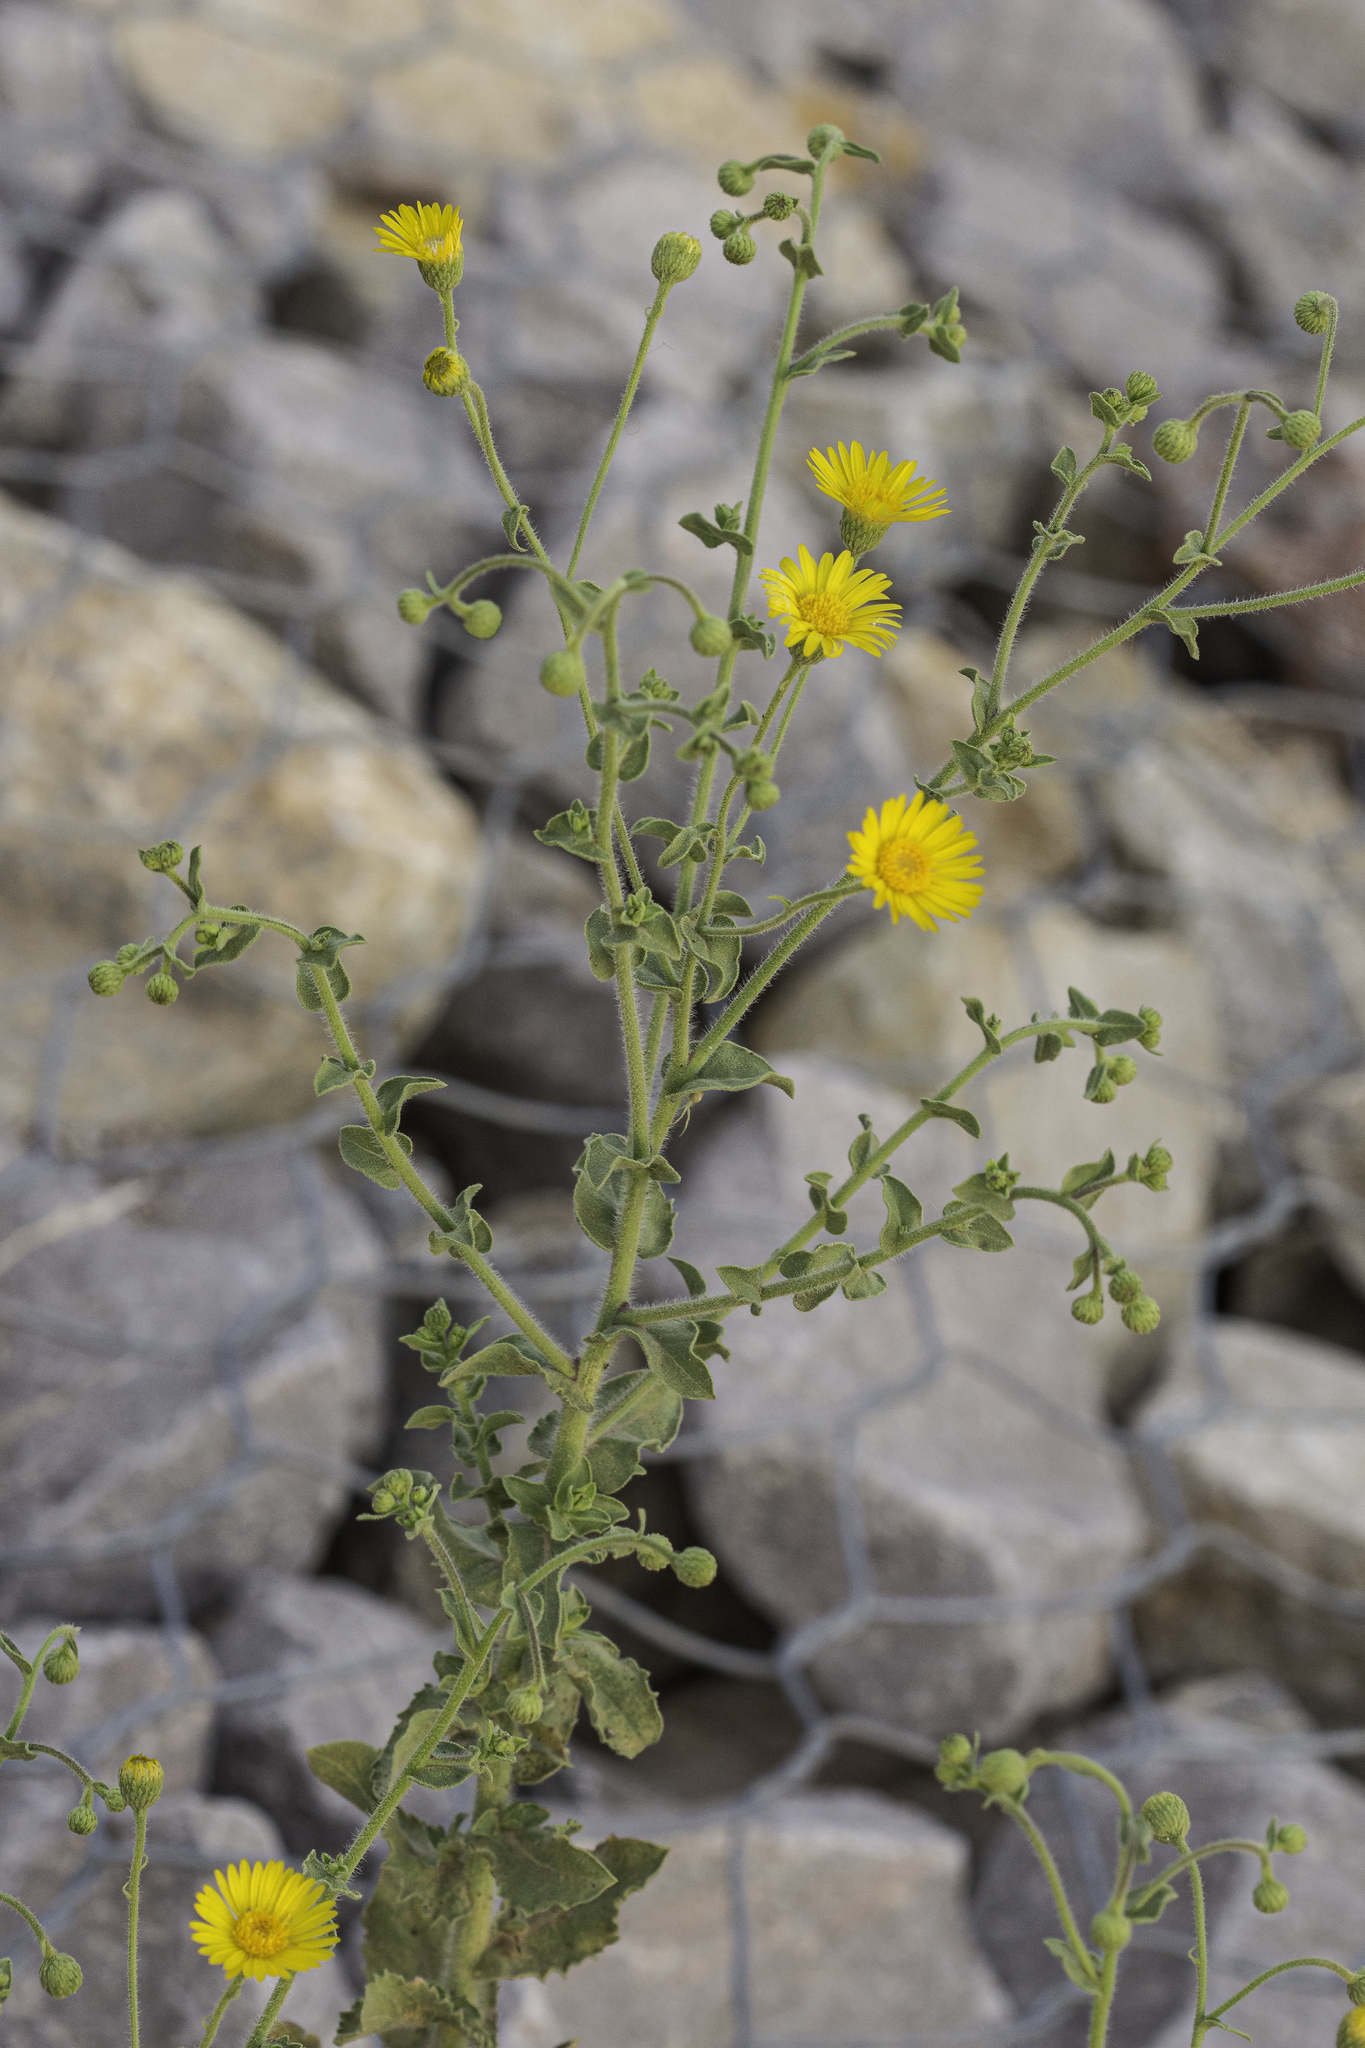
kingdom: Plantae
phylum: Tracheophyta
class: Magnoliopsida
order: Asterales
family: Asteraceae
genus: Heterotheca
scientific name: Heterotheca subaxillaris
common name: Camphorweed
